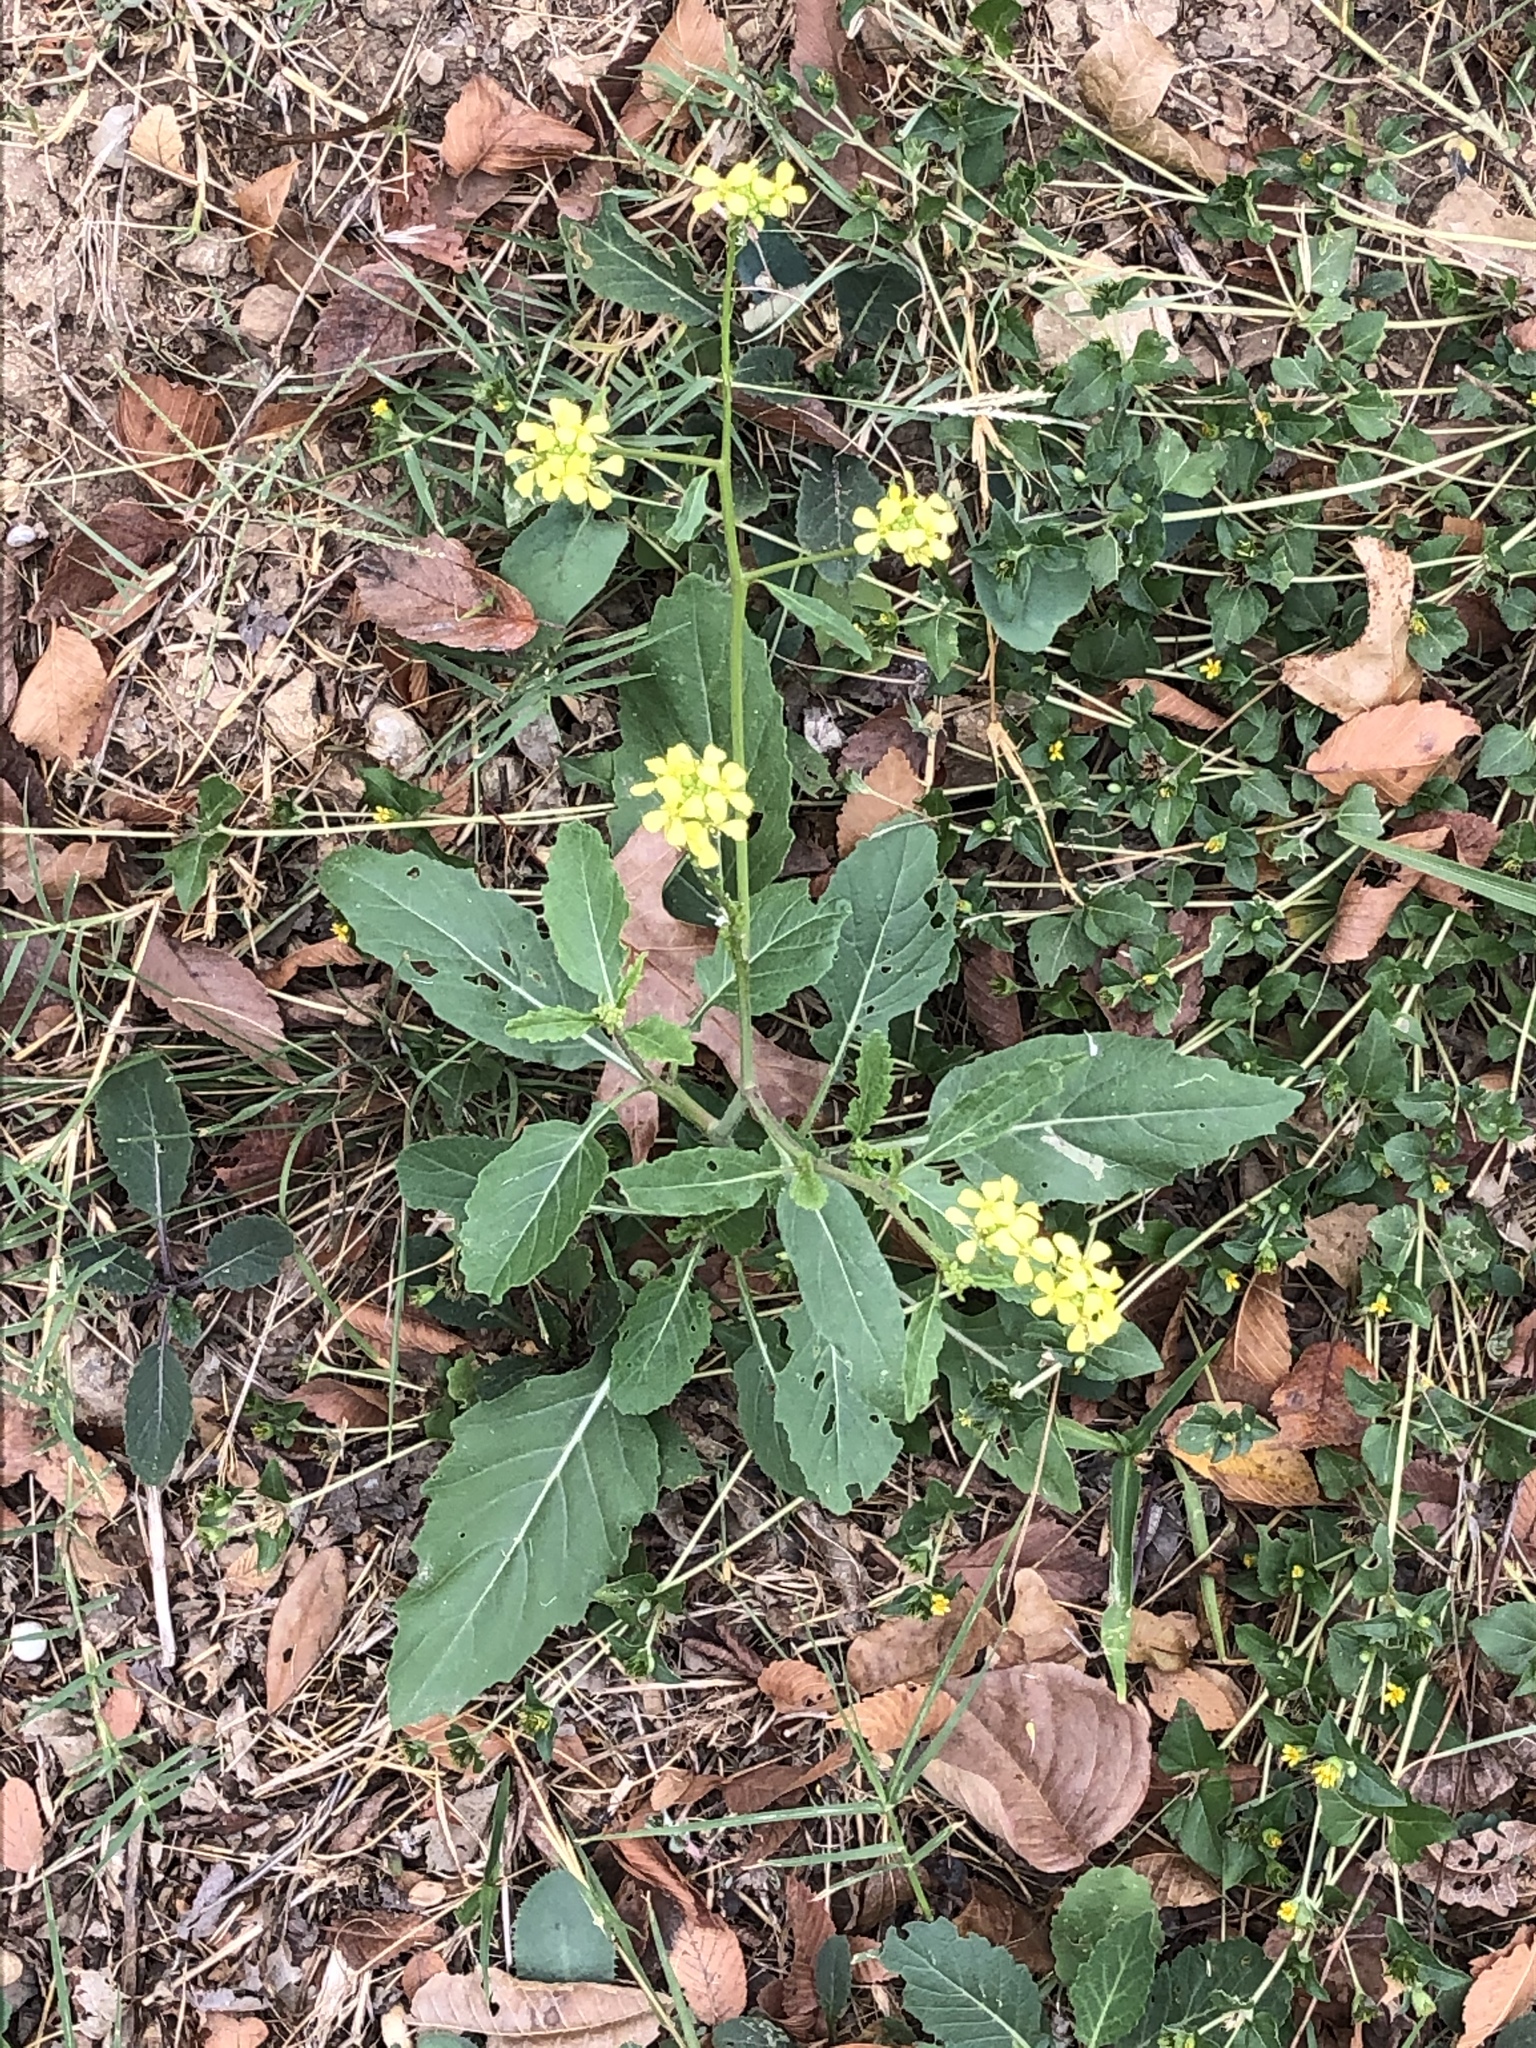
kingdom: Plantae
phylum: Tracheophyta
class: Magnoliopsida
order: Brassicales
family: Brassicaceae
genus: Rapistrum
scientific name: Rapistrum rugosum
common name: Annual bastardcabbage
